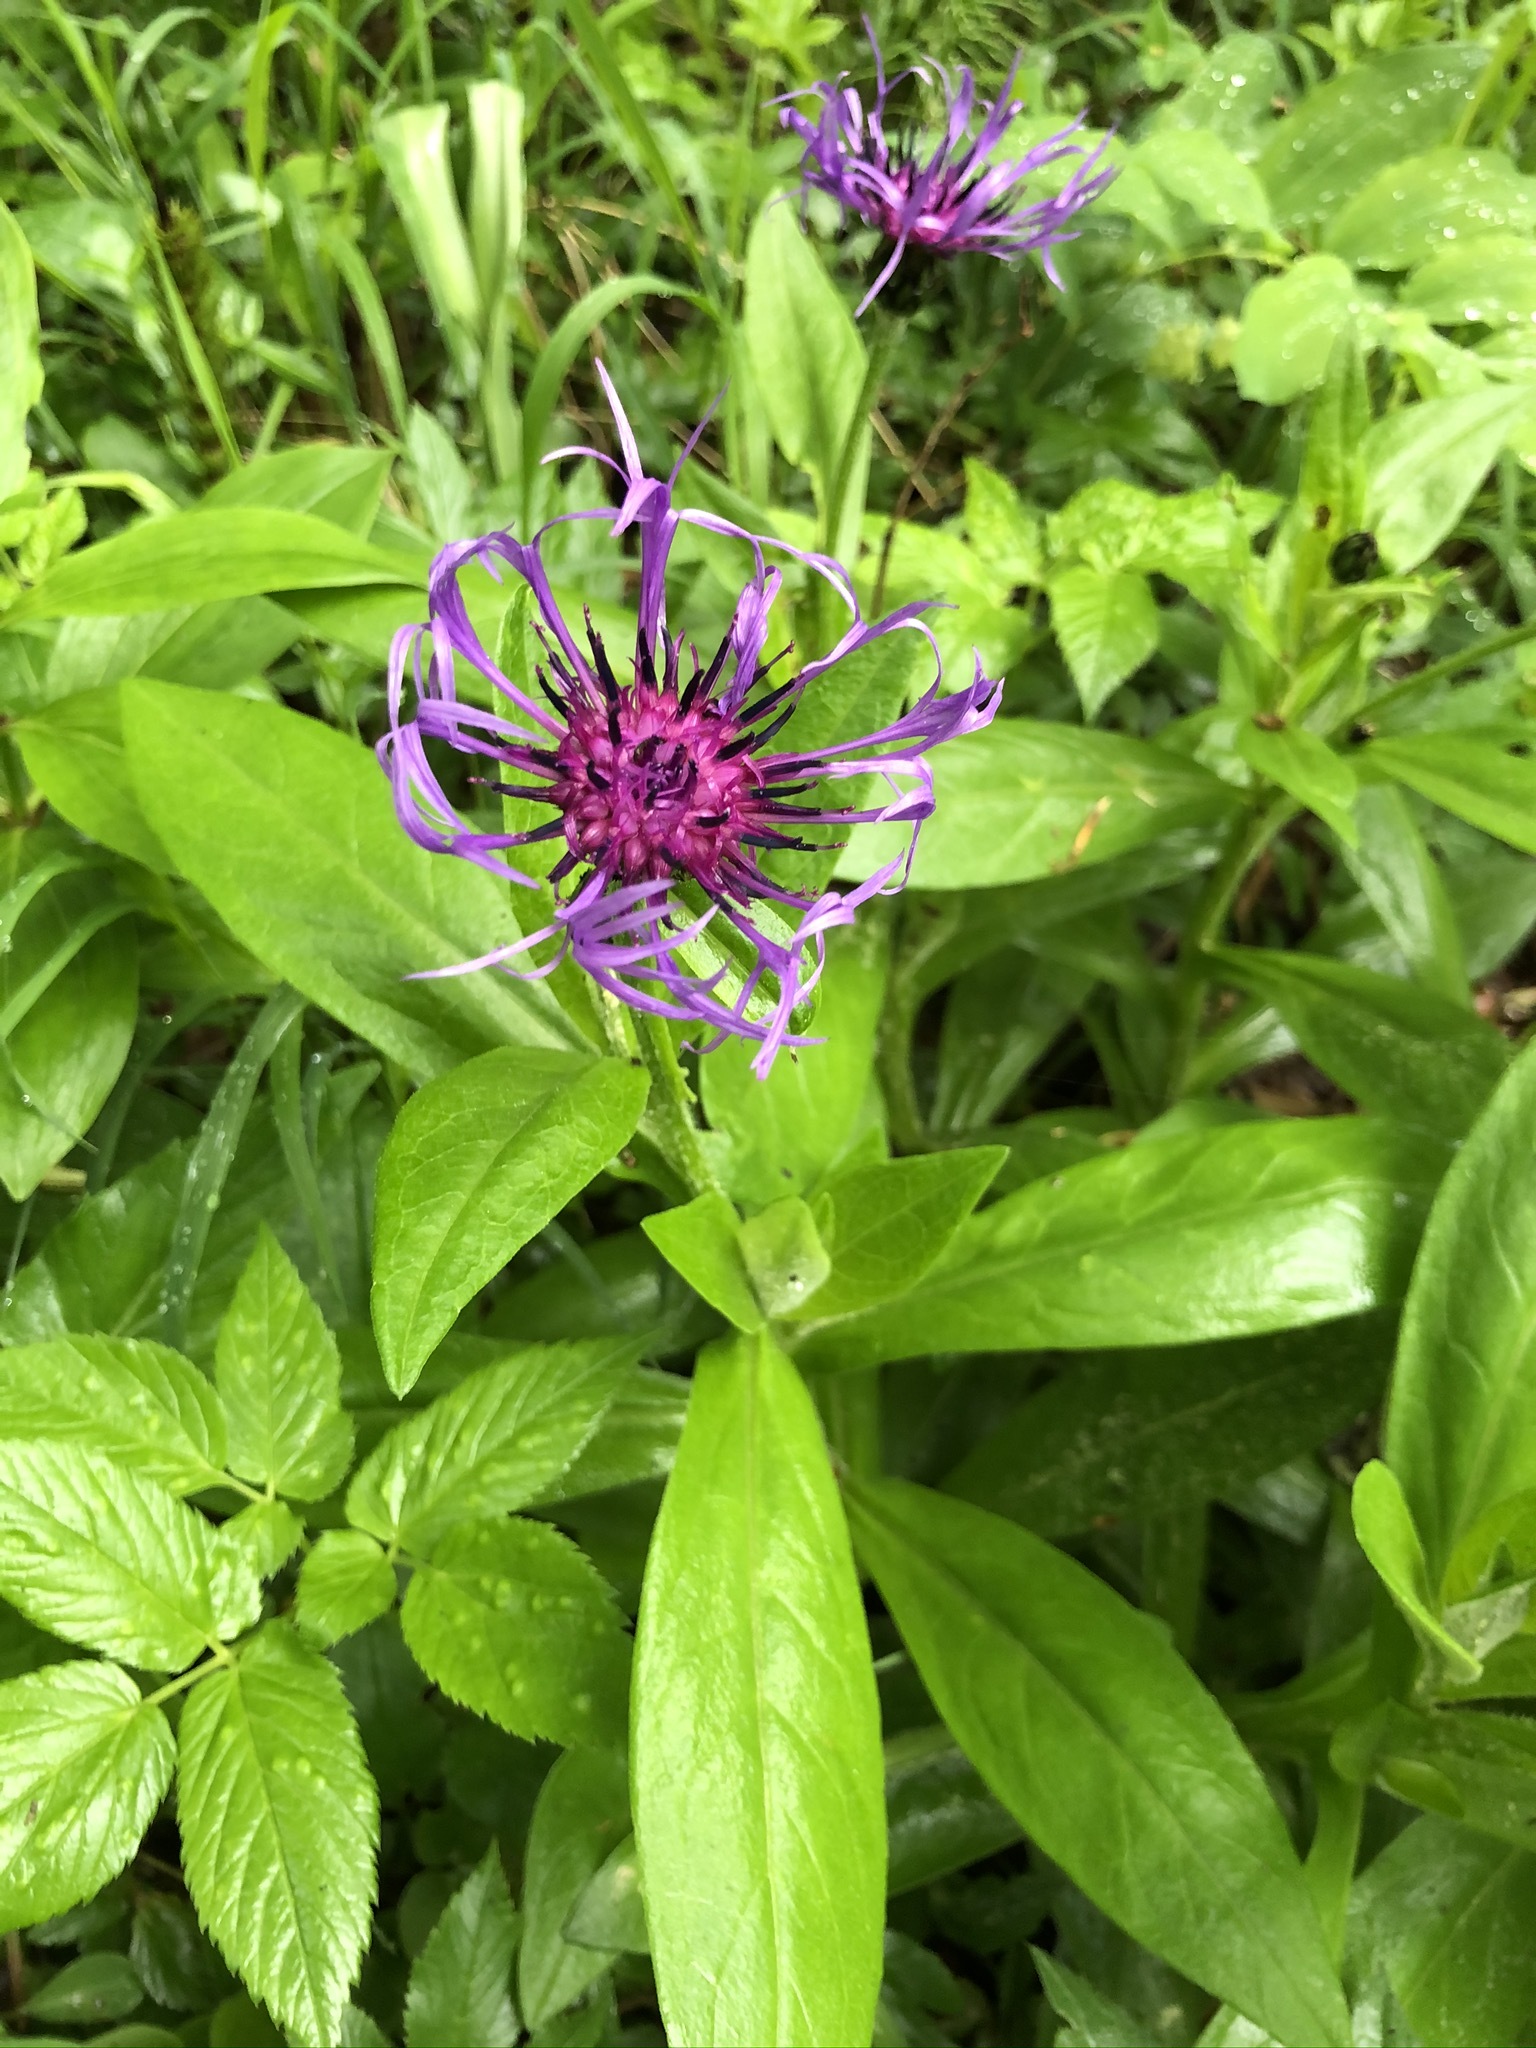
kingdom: Plantae
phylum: Tracheophyta
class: Magnoliopsida
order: Asterales
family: Asteraceae
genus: Centaurea
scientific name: Centaurea montana
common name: Perennial cornflower
